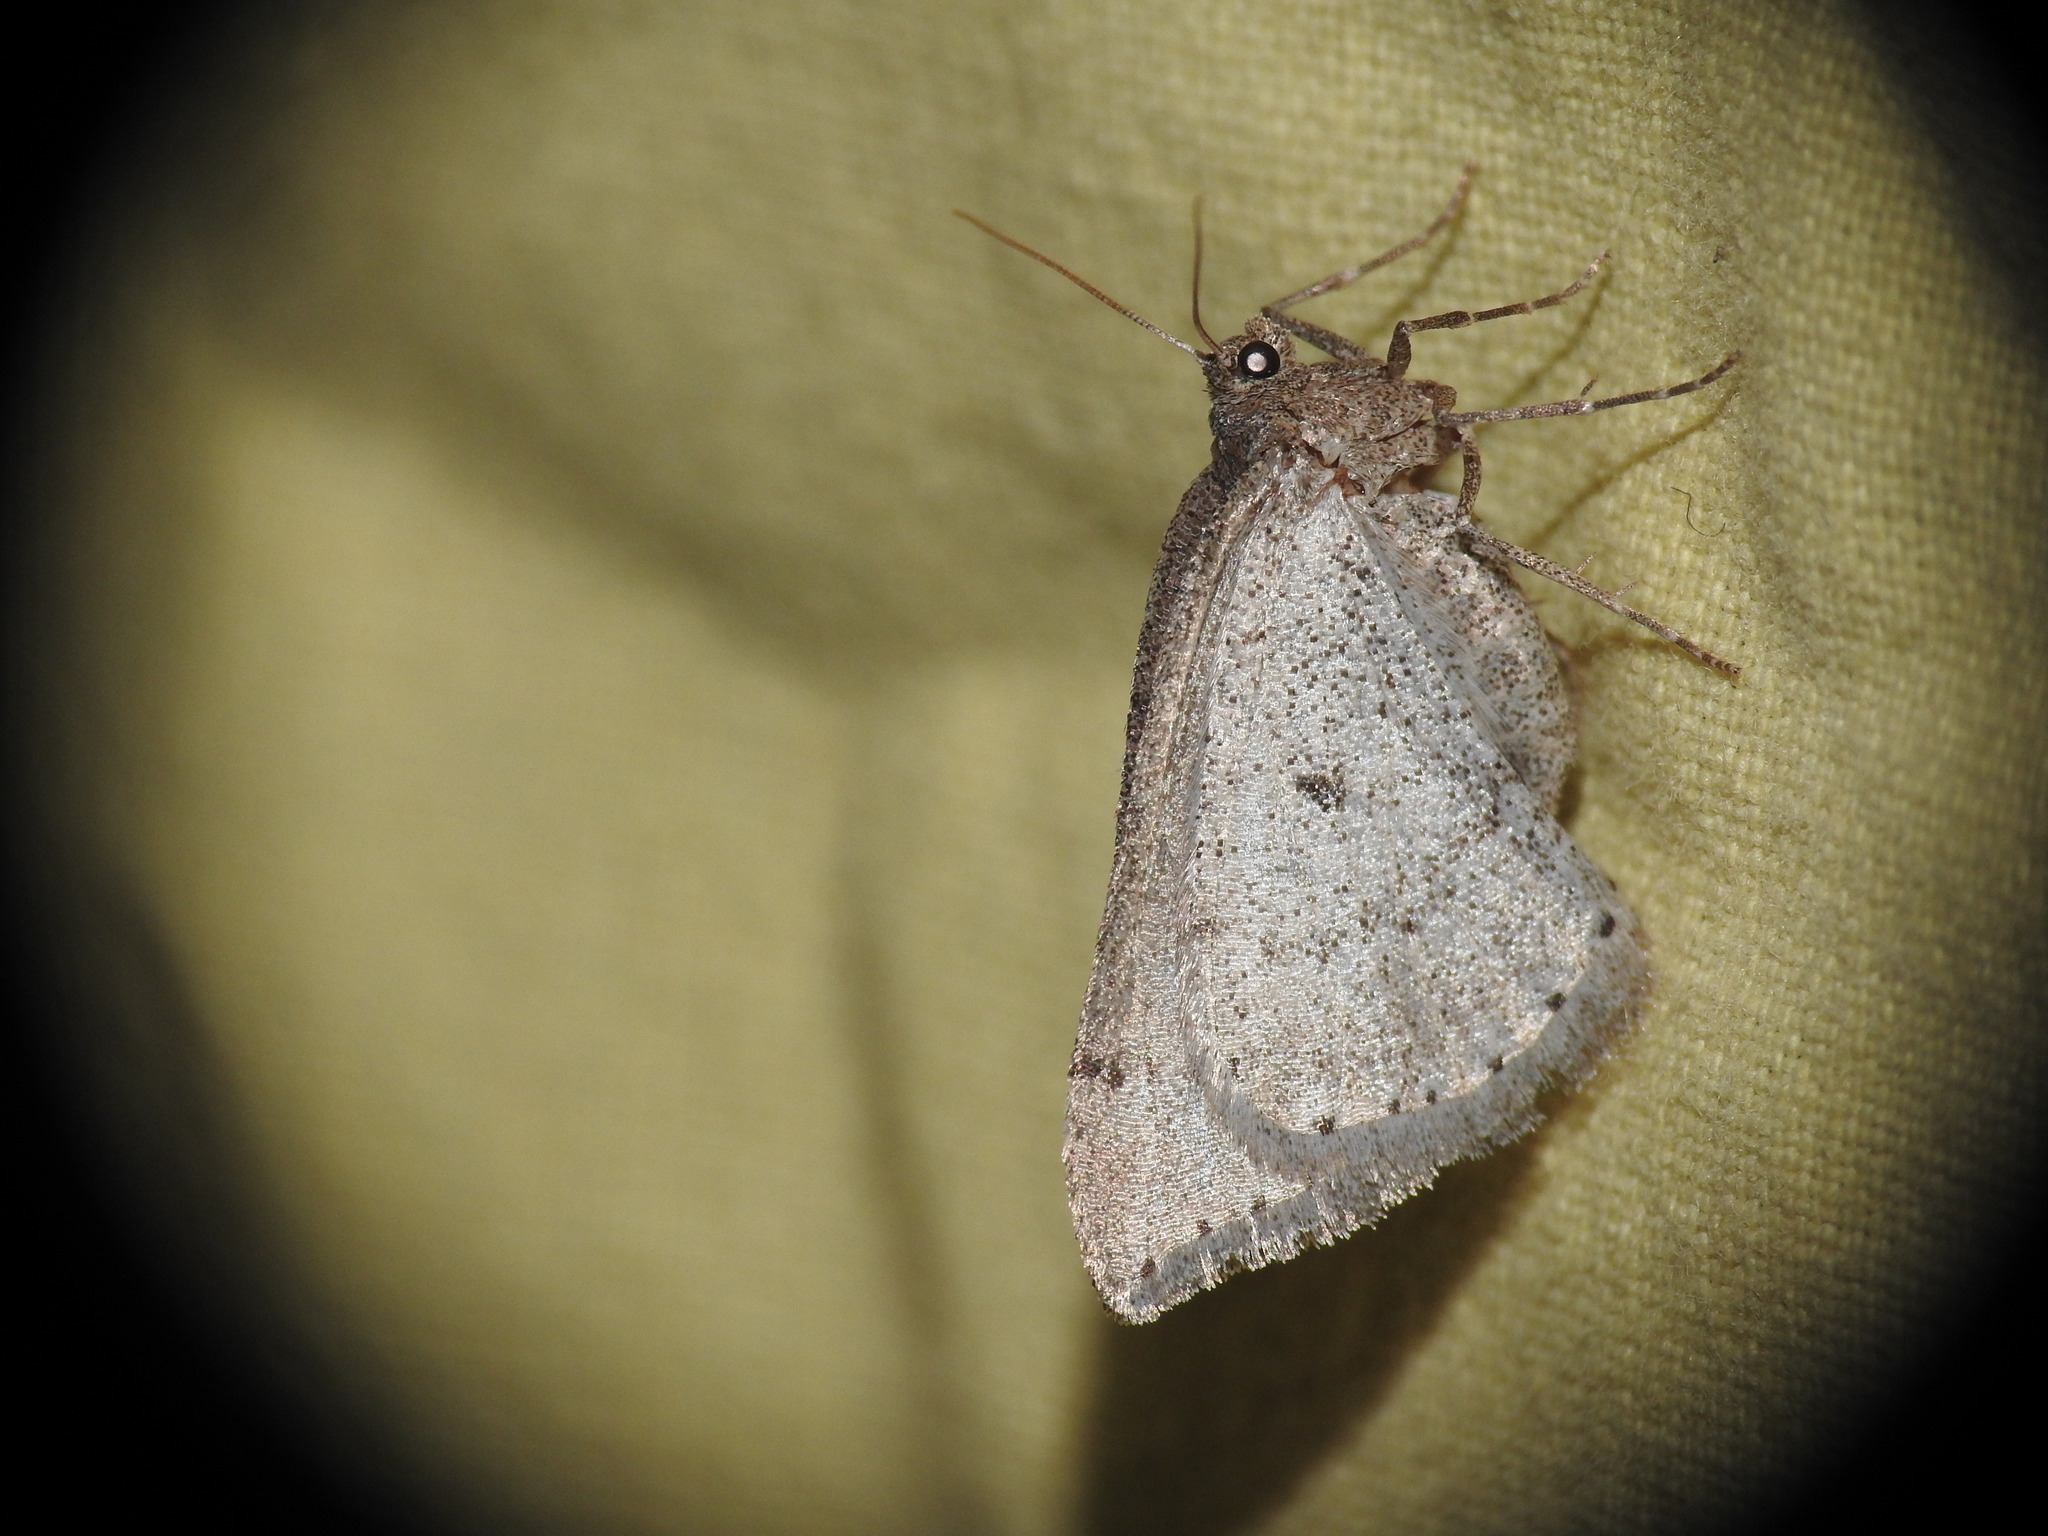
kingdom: Animalia
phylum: Arthropoda
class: Insecta
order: Lepidoptera
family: Geometridae
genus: Aleucis
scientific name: Aleucis distinctata
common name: Sloe carpet
